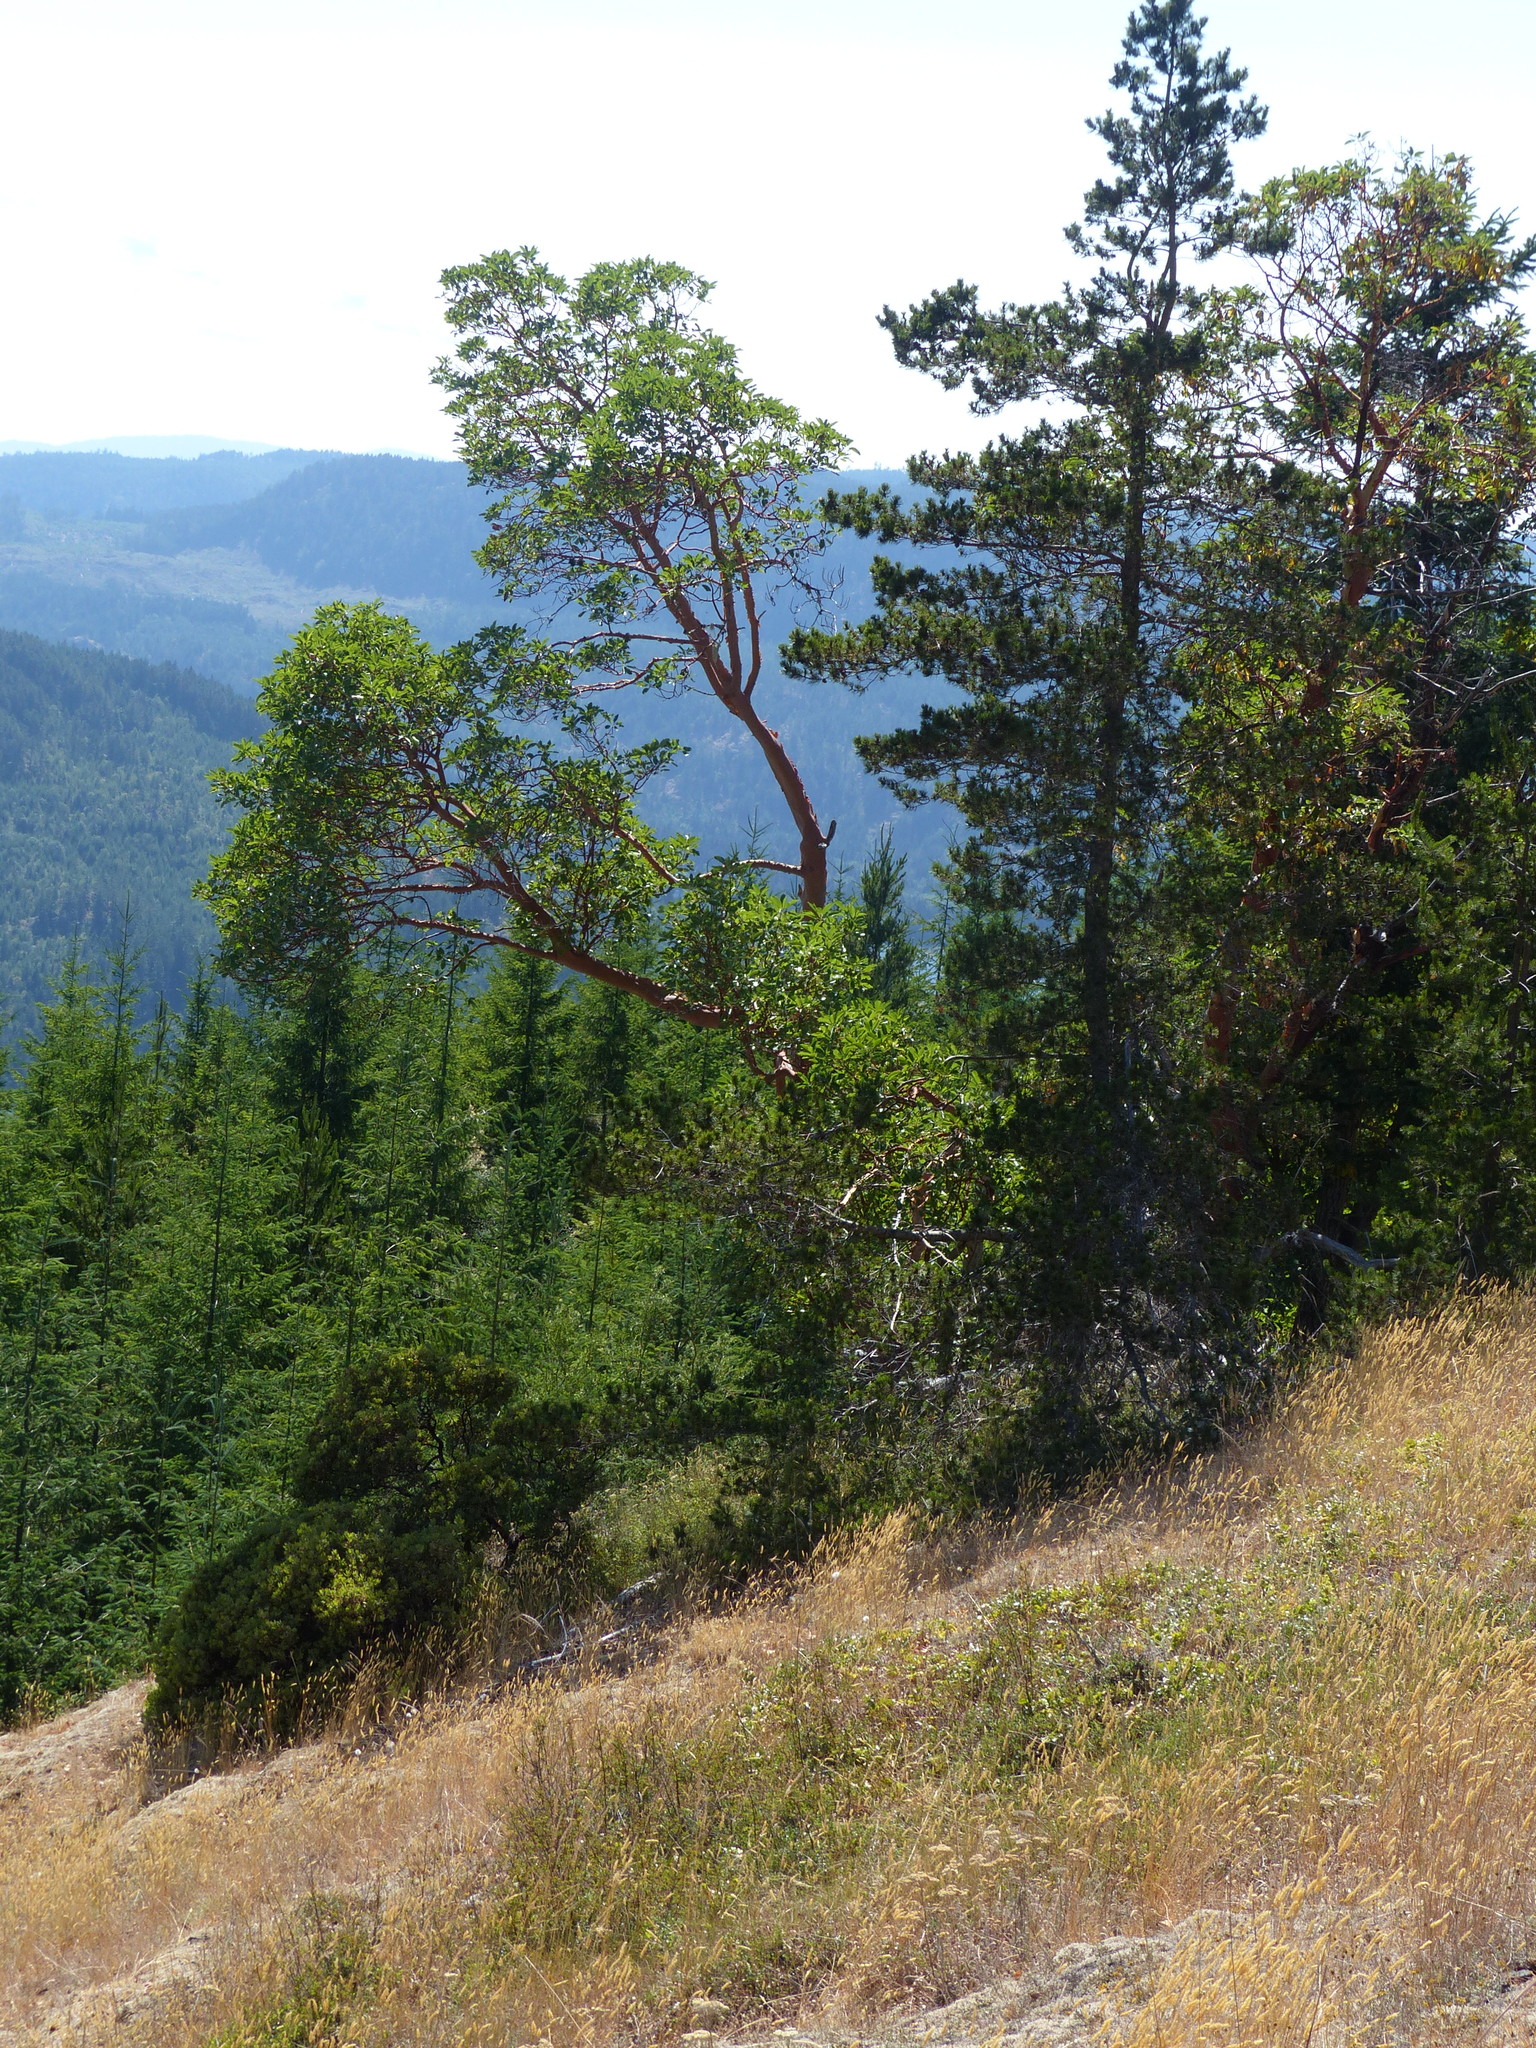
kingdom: Plantae
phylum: Tracheophyta
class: Magnoliopsida
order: Ericales
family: Ericaceae
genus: Arbutus
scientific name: Arbutus menziesii
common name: Pacific madrone
